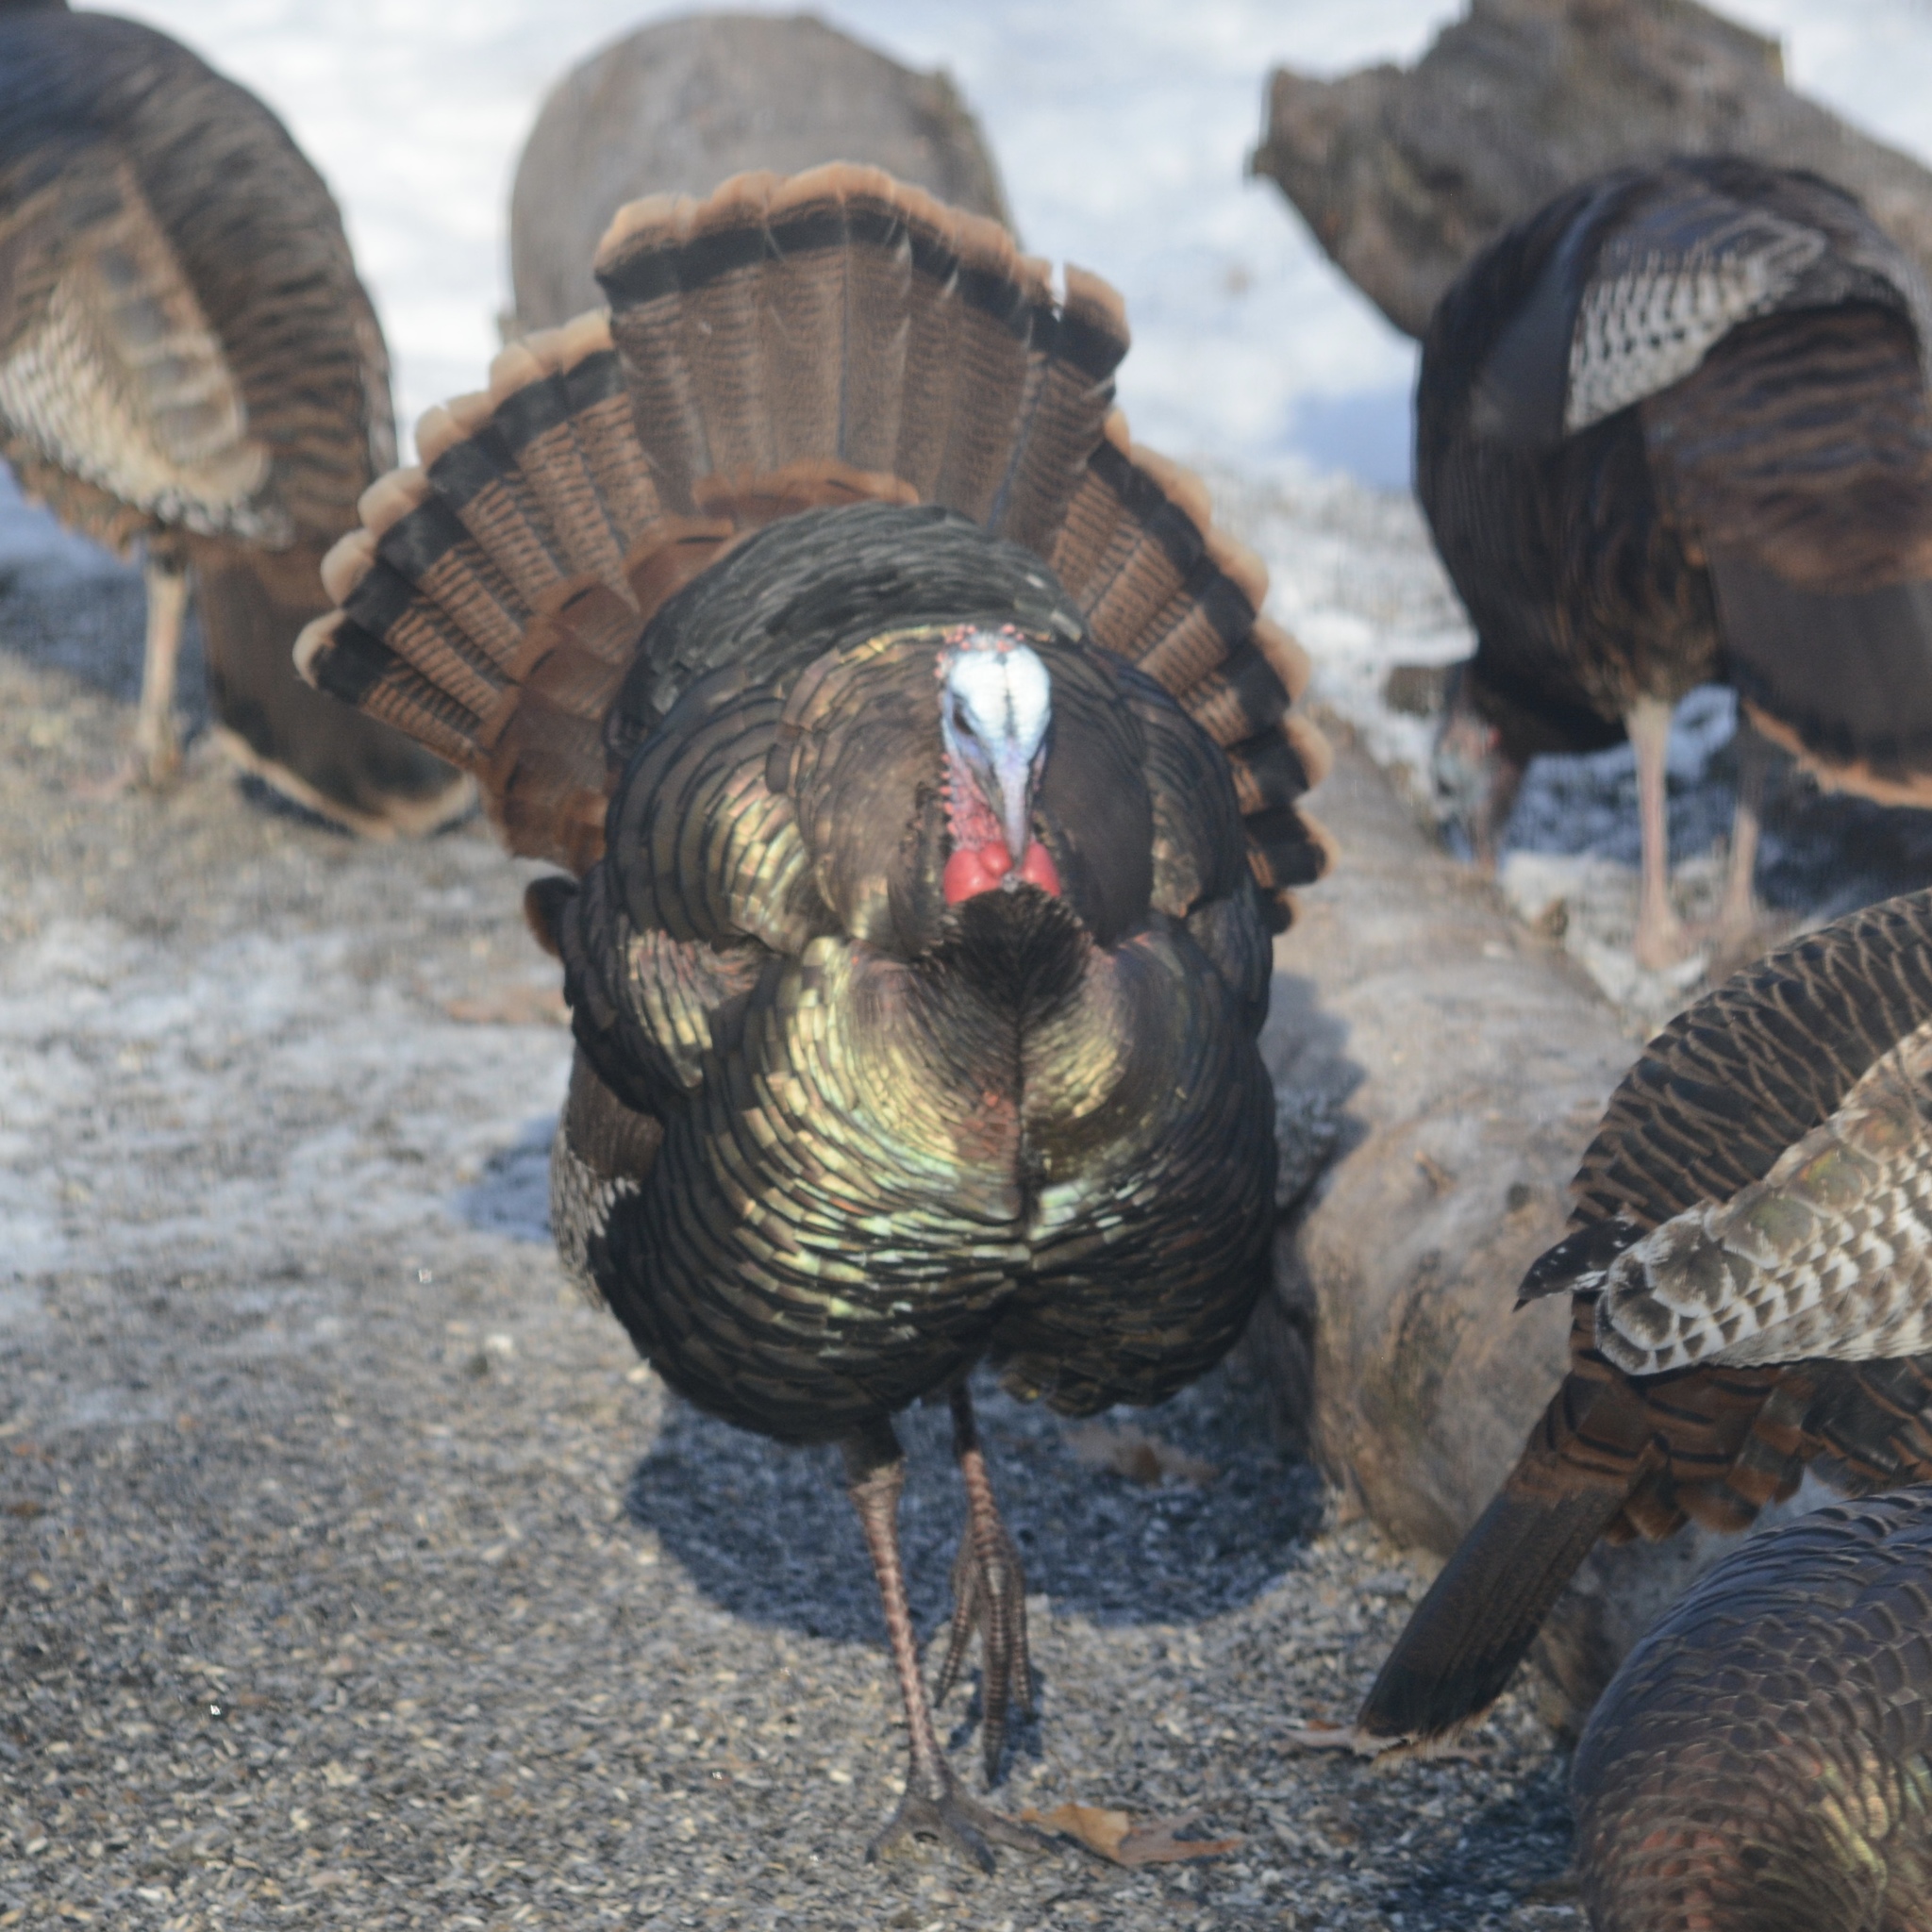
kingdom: Animalia
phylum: Chordata
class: Aves
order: Galliformes
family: Phasianidae
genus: Meleagris
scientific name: Meleagris gallopavo
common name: Wild turkey
